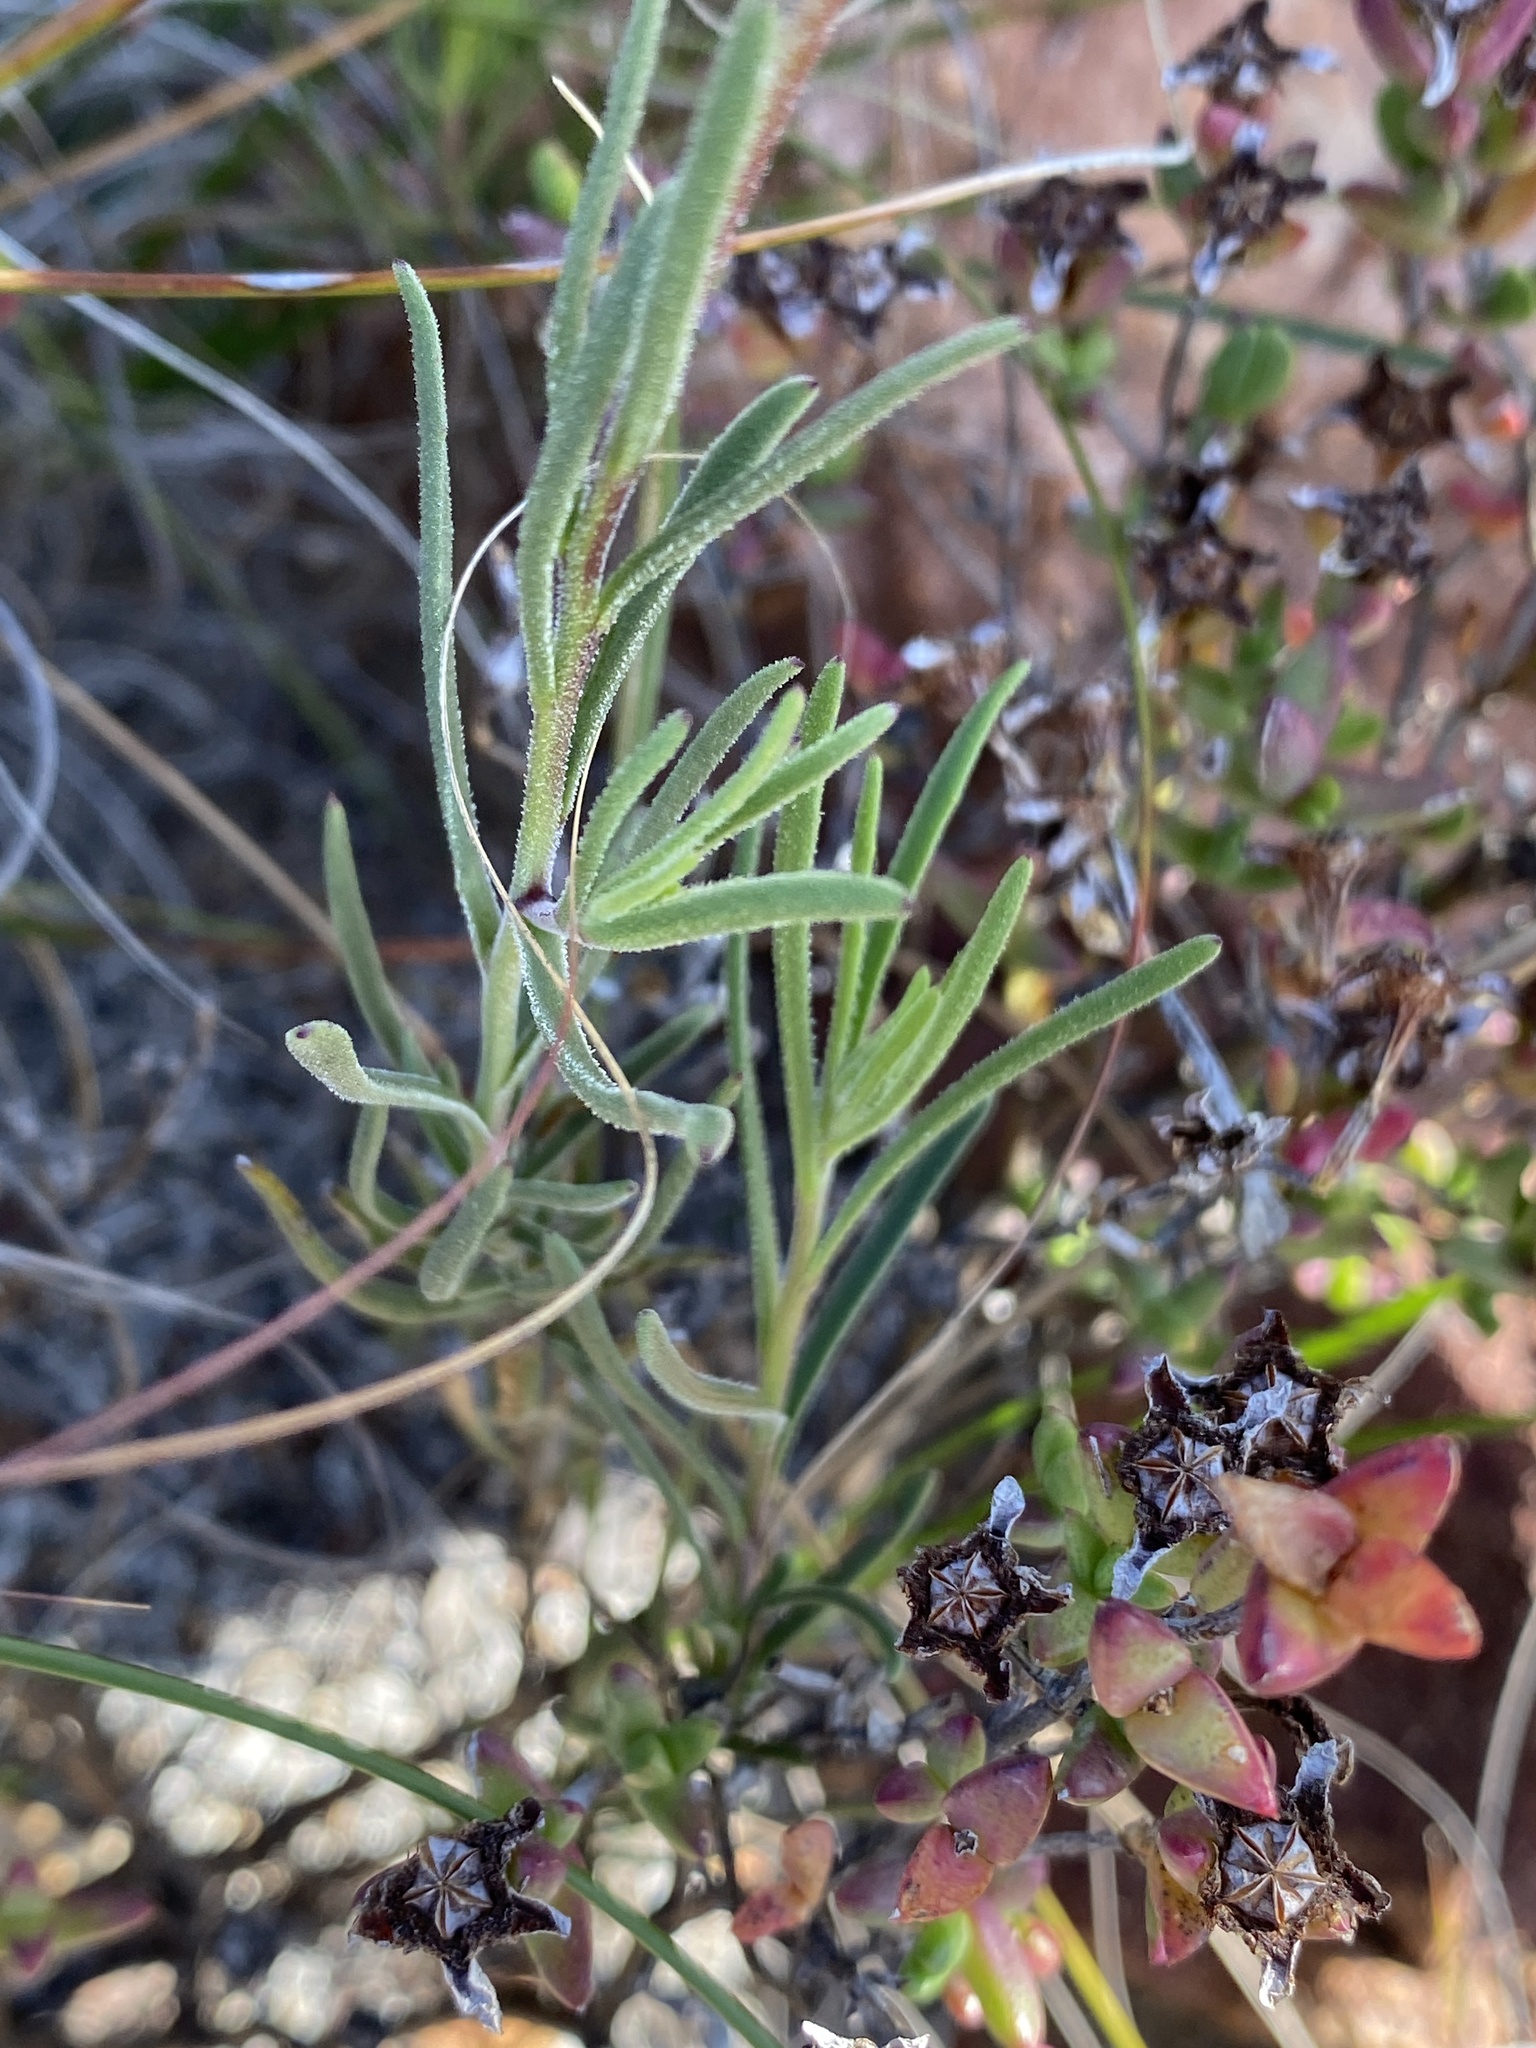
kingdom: Plantae
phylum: Tracheophyta
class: Magnoliopsida
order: Asterales
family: Asteraceae
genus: Dimorphotheca
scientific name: Dimorphotheca montana
